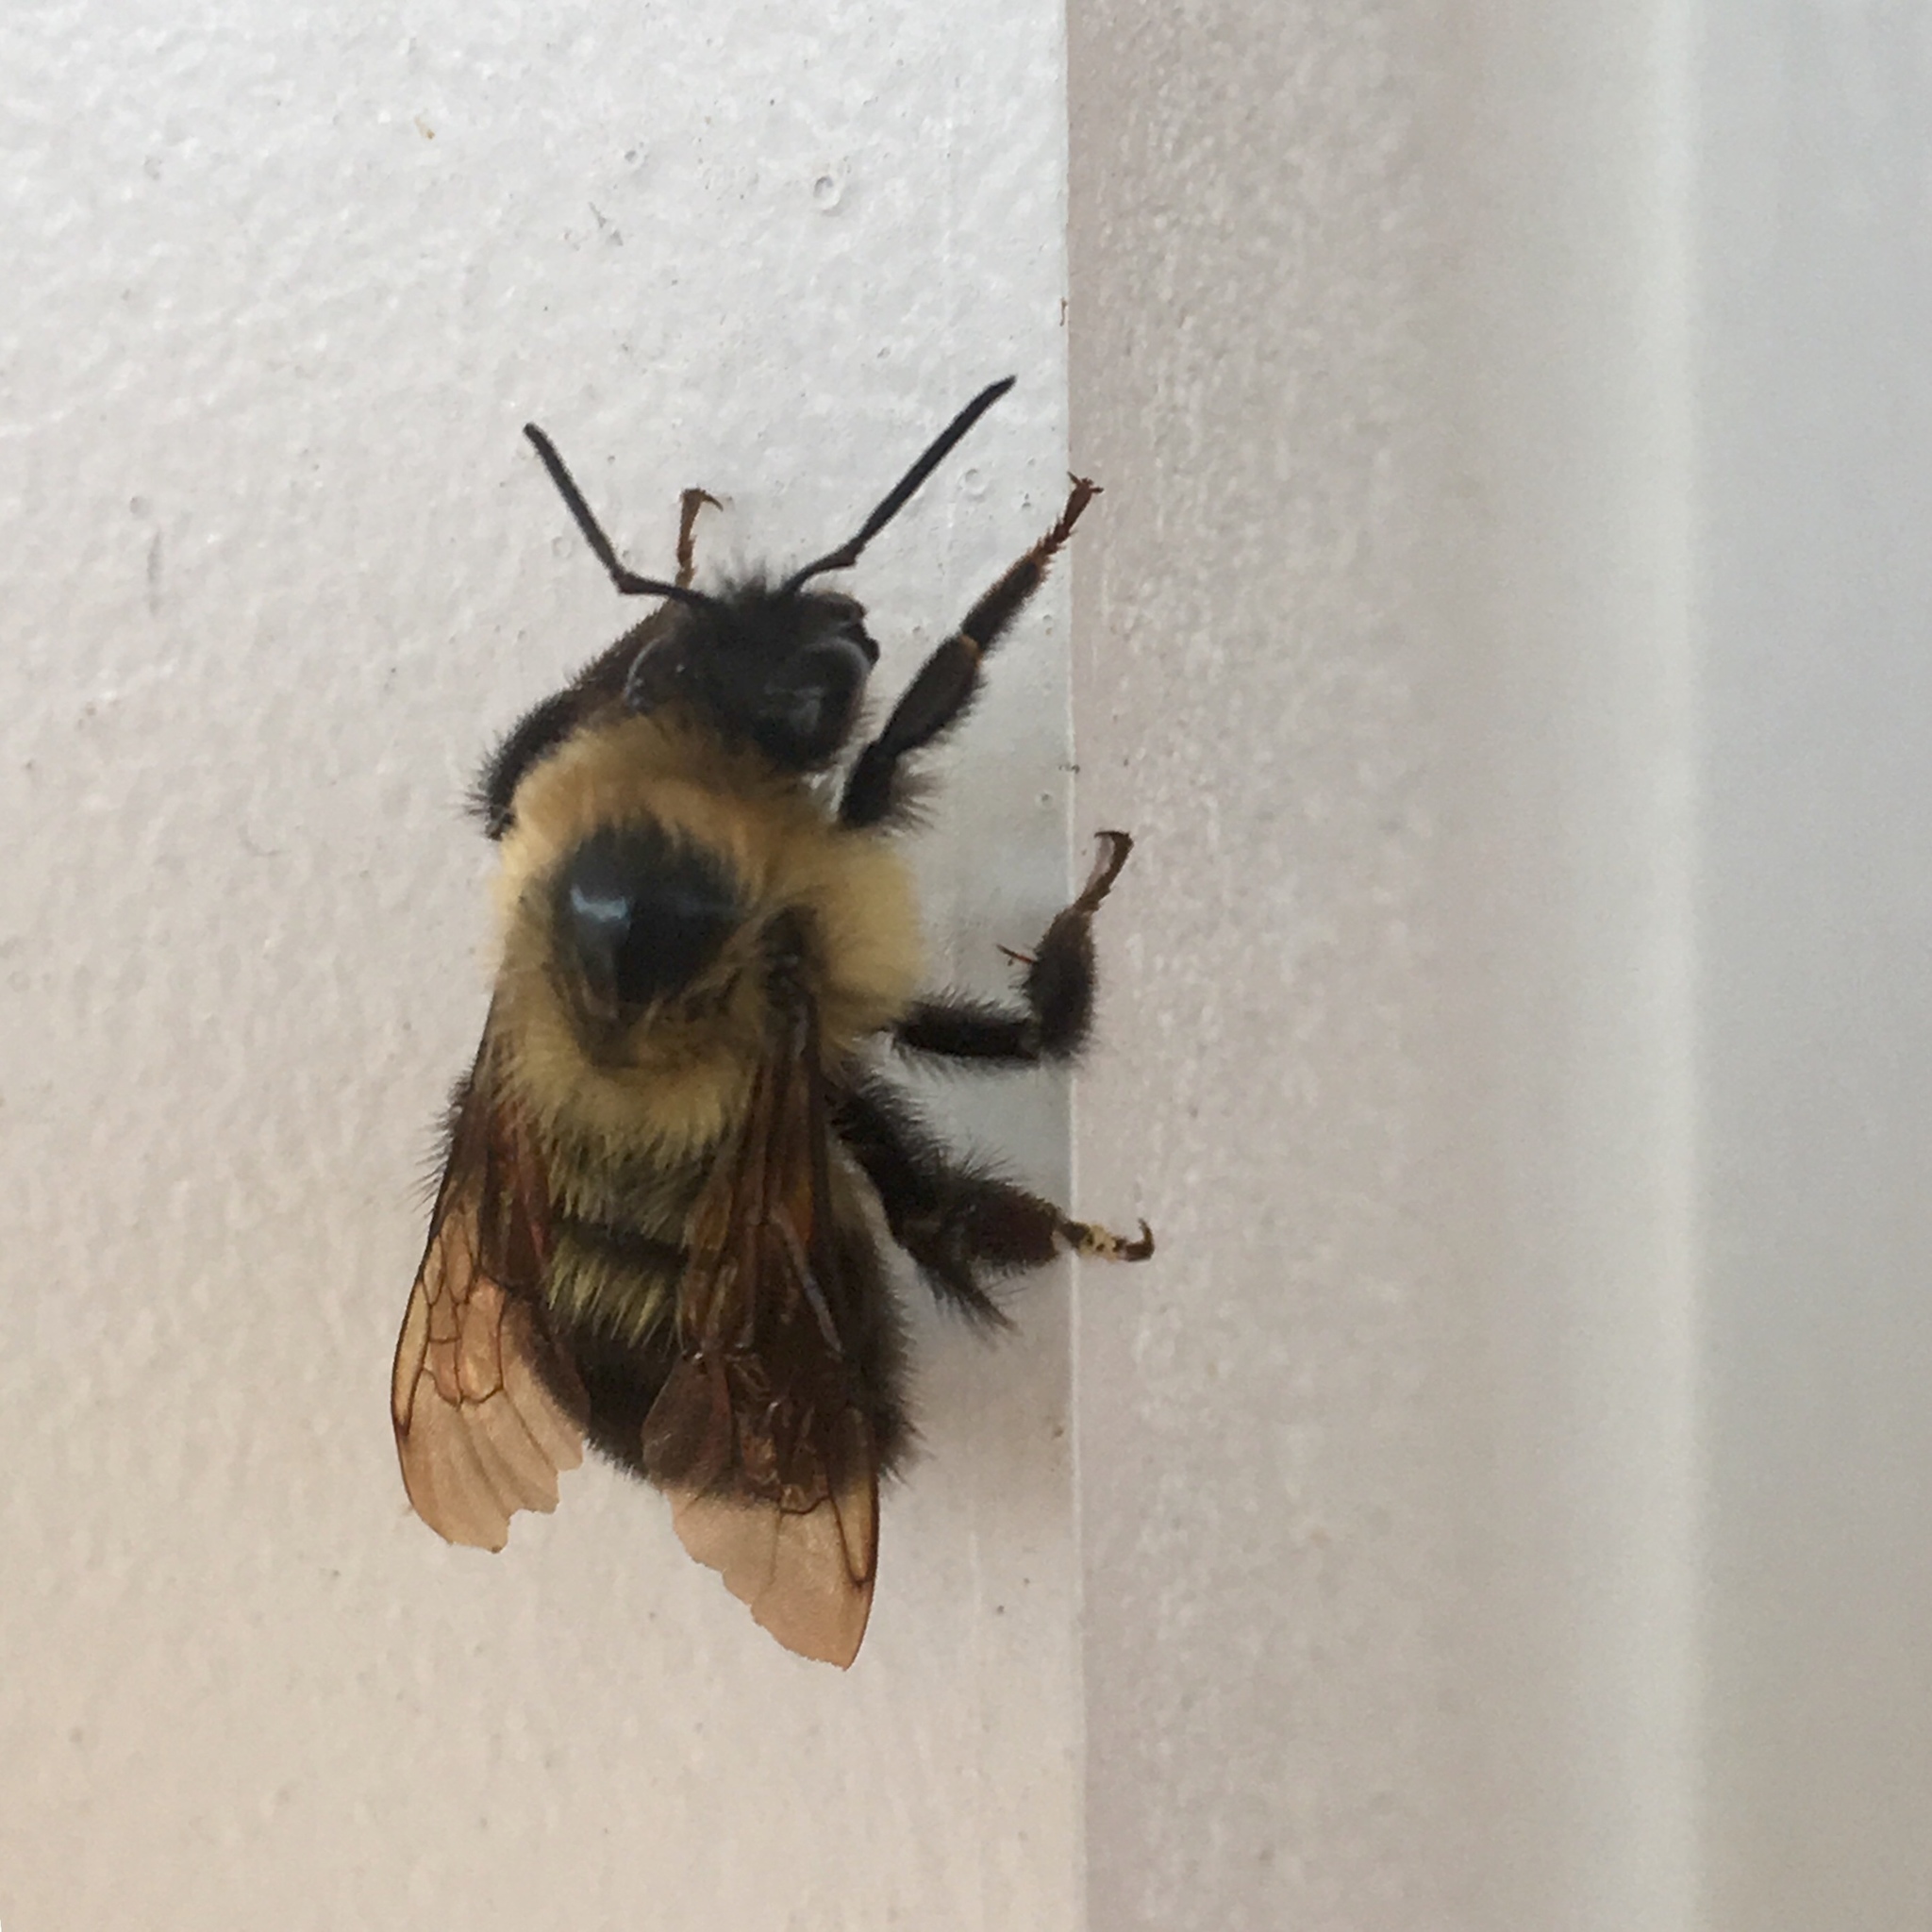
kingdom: Animalia
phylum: Arthropoda
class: Insecta
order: Hymenoptera
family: Apidae
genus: Bombus
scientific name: Bombus bimaculatus
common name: Two-spotted bumble bee
